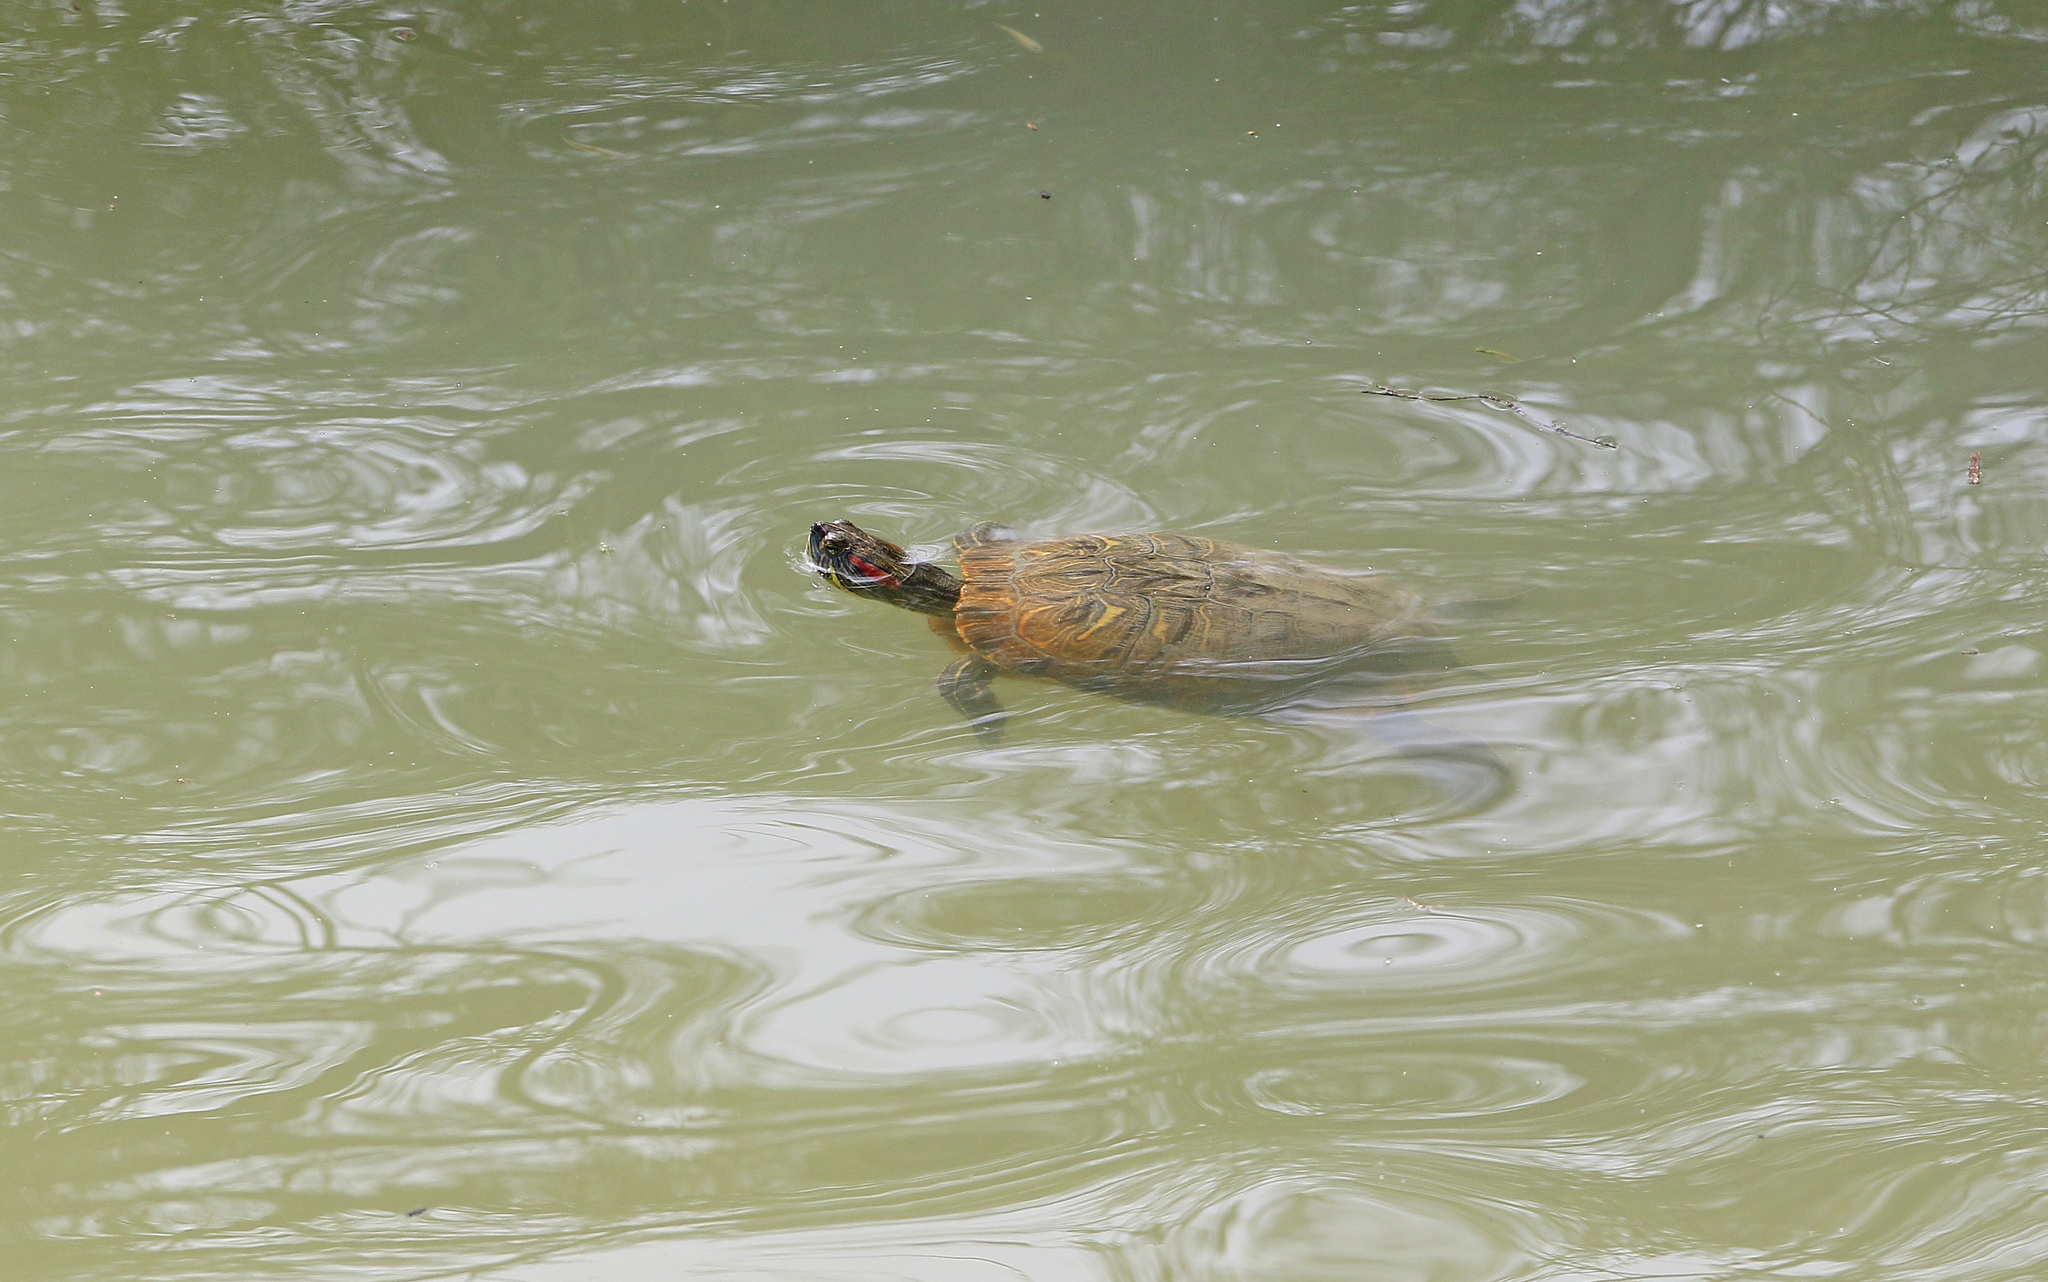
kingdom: Animalia
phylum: Chordata
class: Testudines
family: Emydidae
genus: Trachemys
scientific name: Trachemys scripta
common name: Slider
